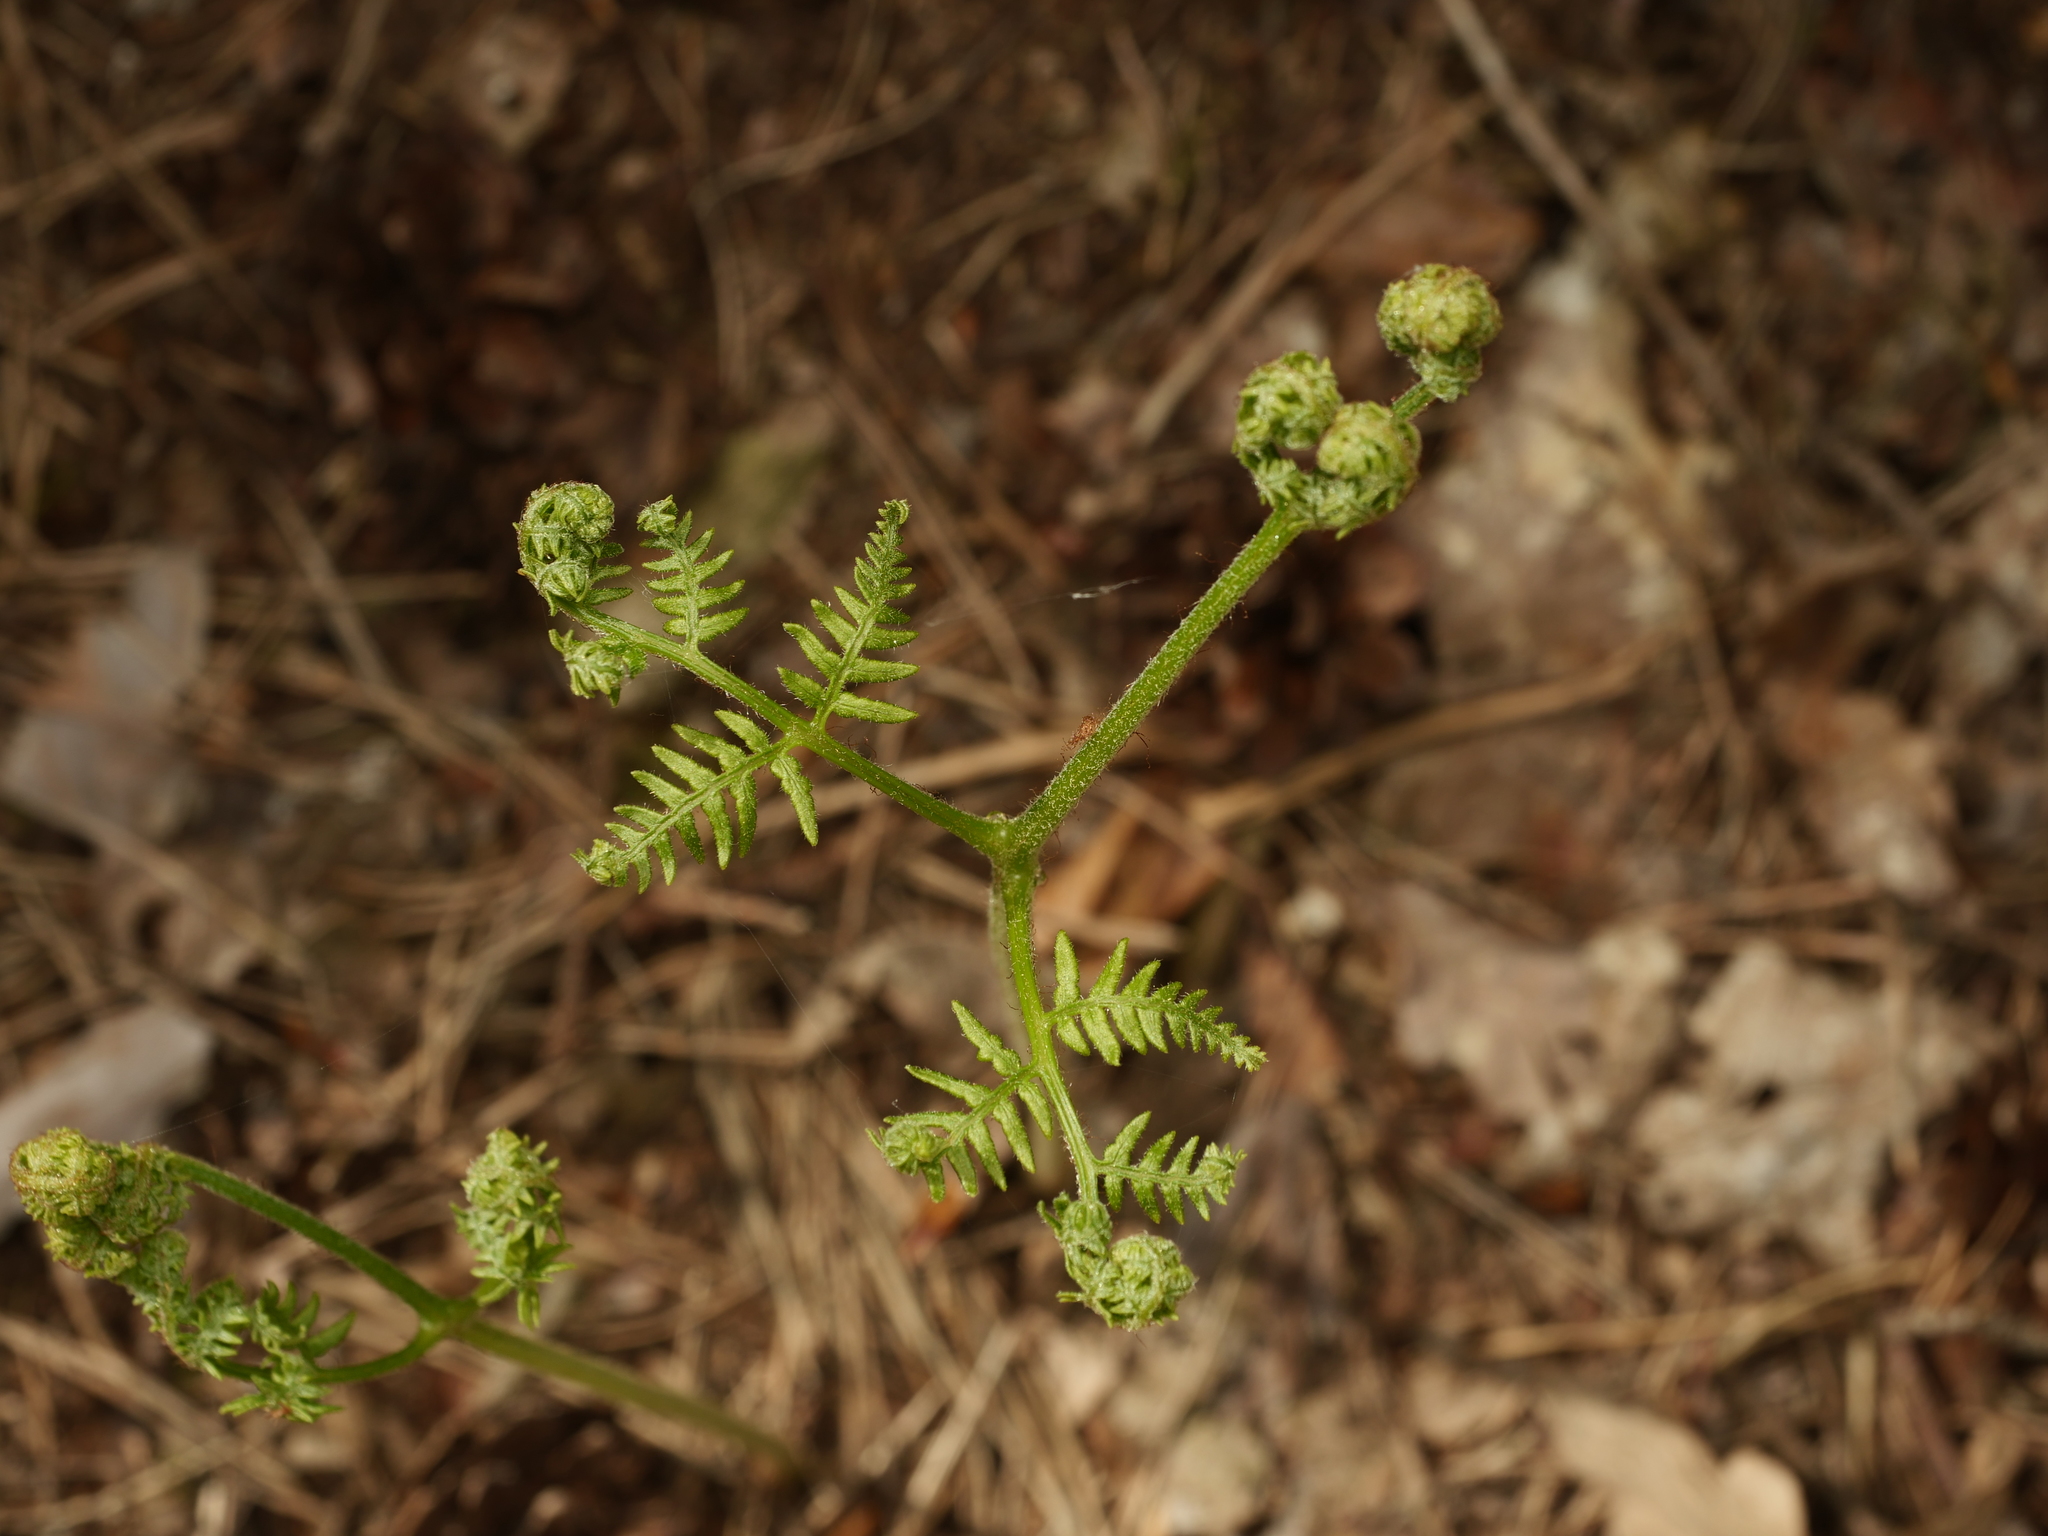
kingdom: Plantae
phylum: Tracheophyta
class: Polypodiopsida
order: Polypodiales
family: Dennstaedtiaceae
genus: Pteridium
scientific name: Pteridium aquilinum
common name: Bracken
